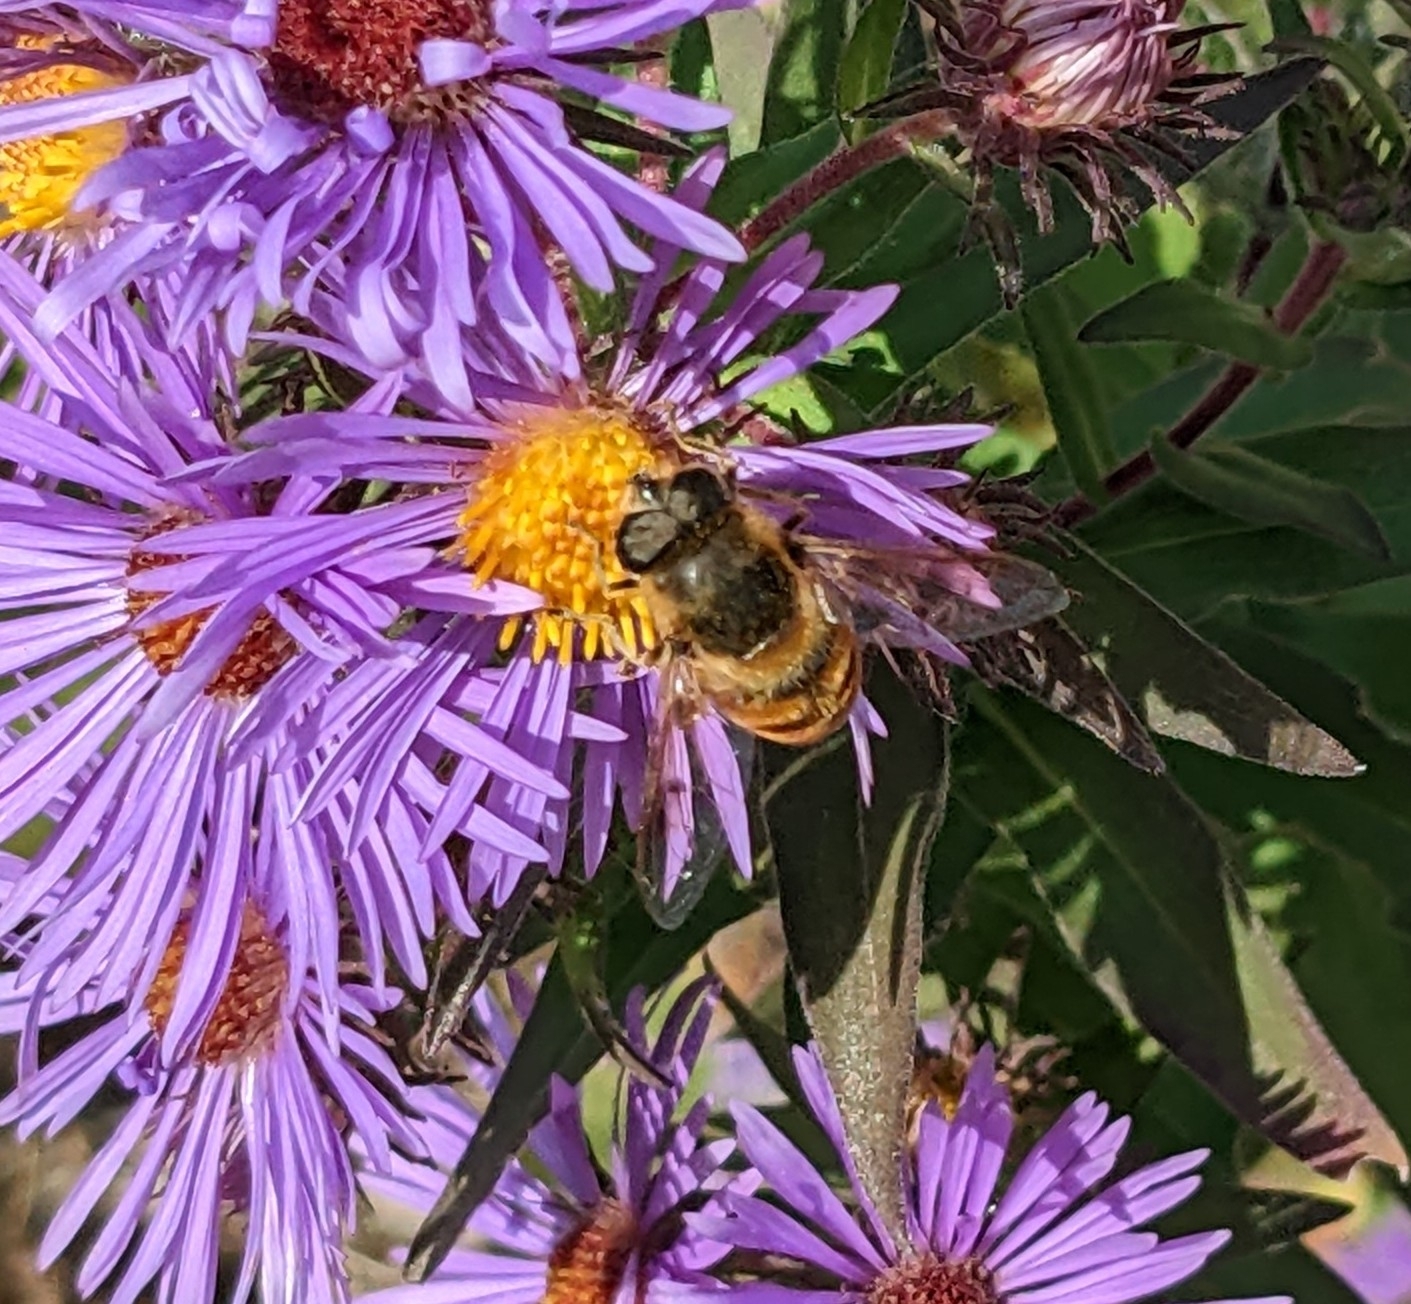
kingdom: Animalia
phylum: Arthropoda
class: Insecta
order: Diptera
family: Syrphidae
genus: Eristalis
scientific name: Eristalis tenax
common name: Drone fly
